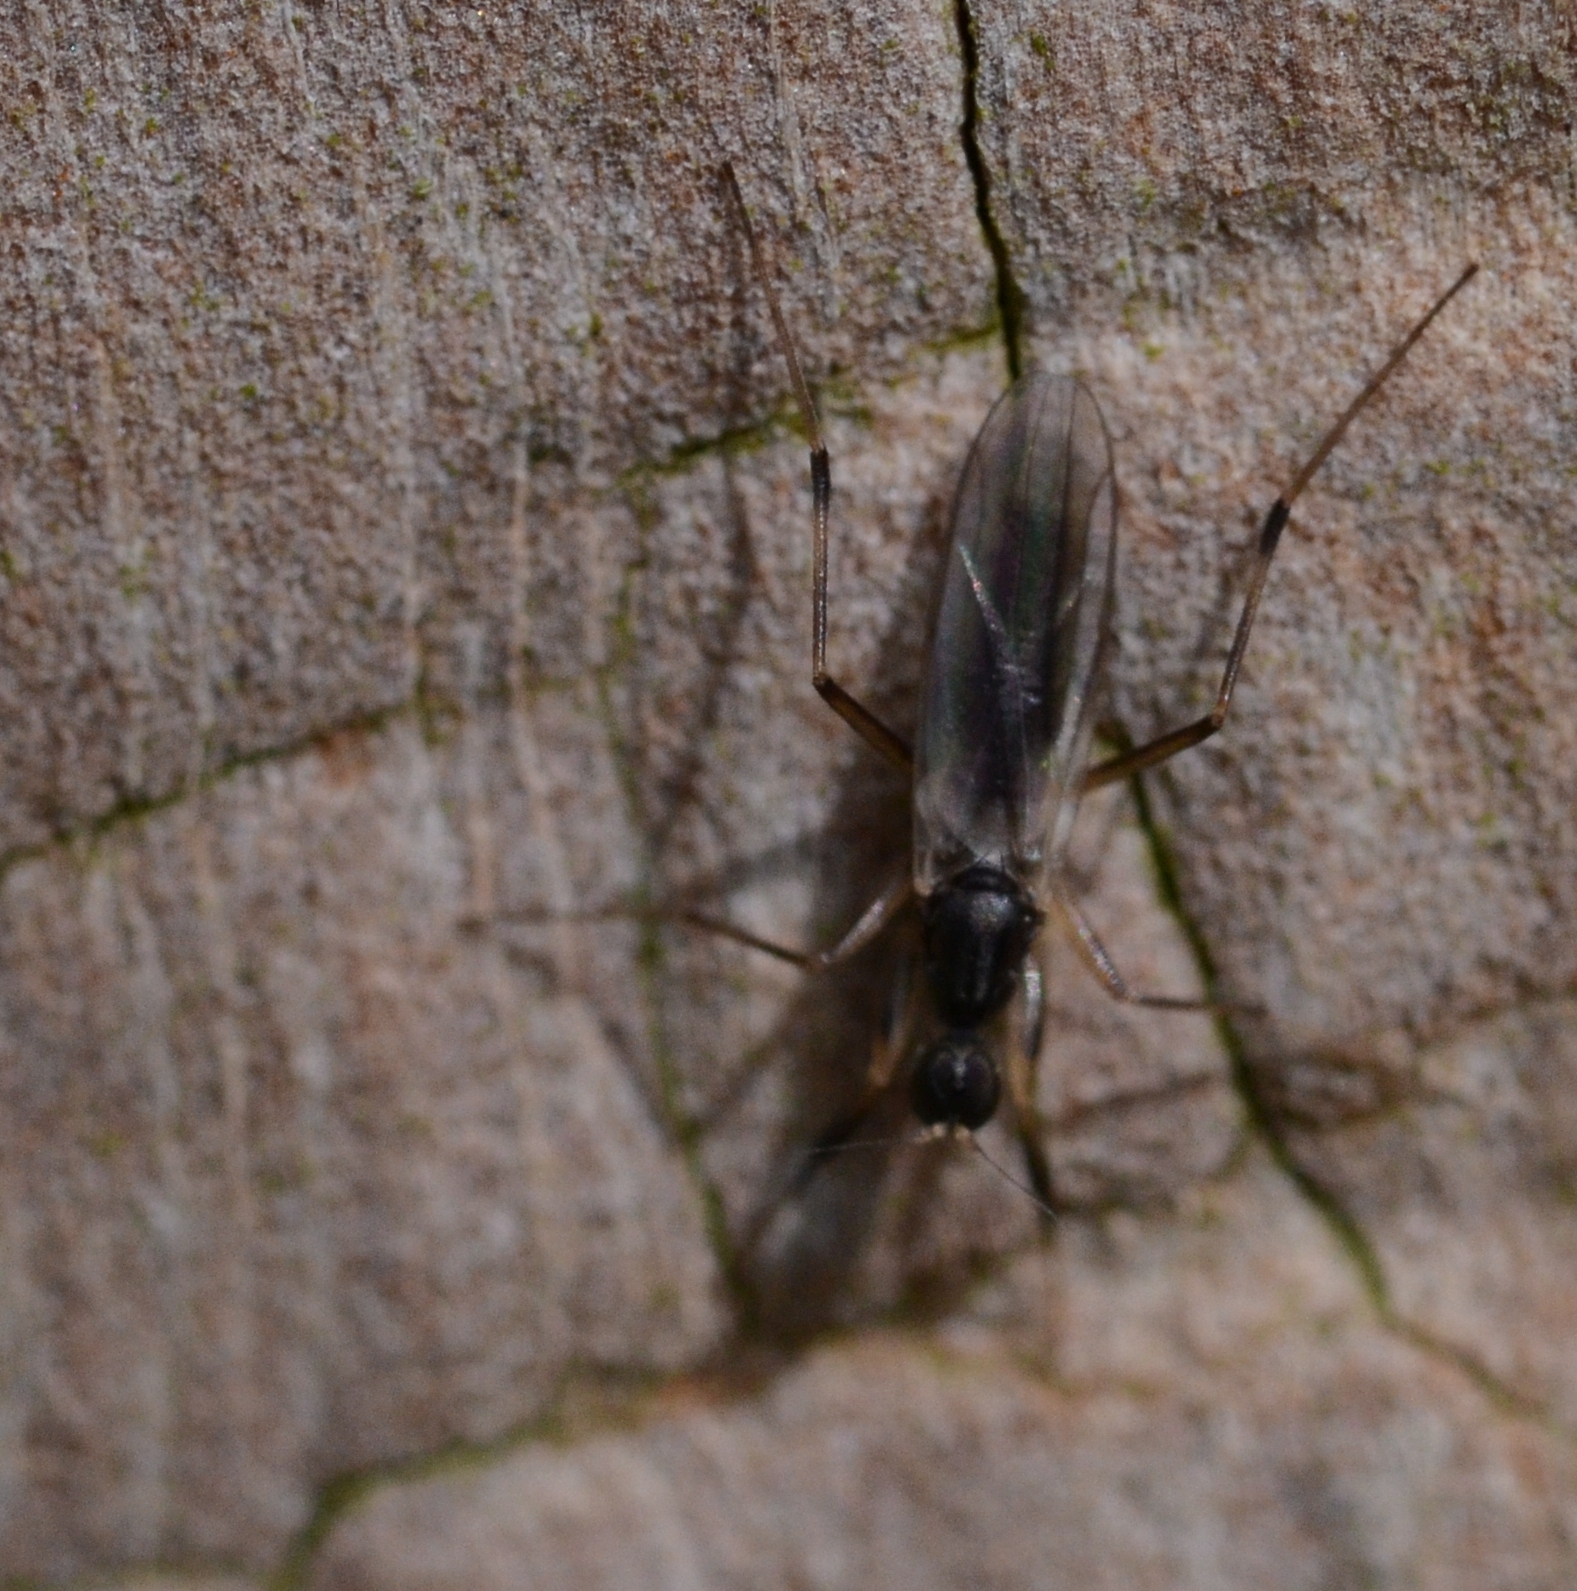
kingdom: Animalia
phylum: Arthropoda
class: Insecta
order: Diptera
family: Hybotidae
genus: Tachypeza
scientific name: Tachypeza nubila
